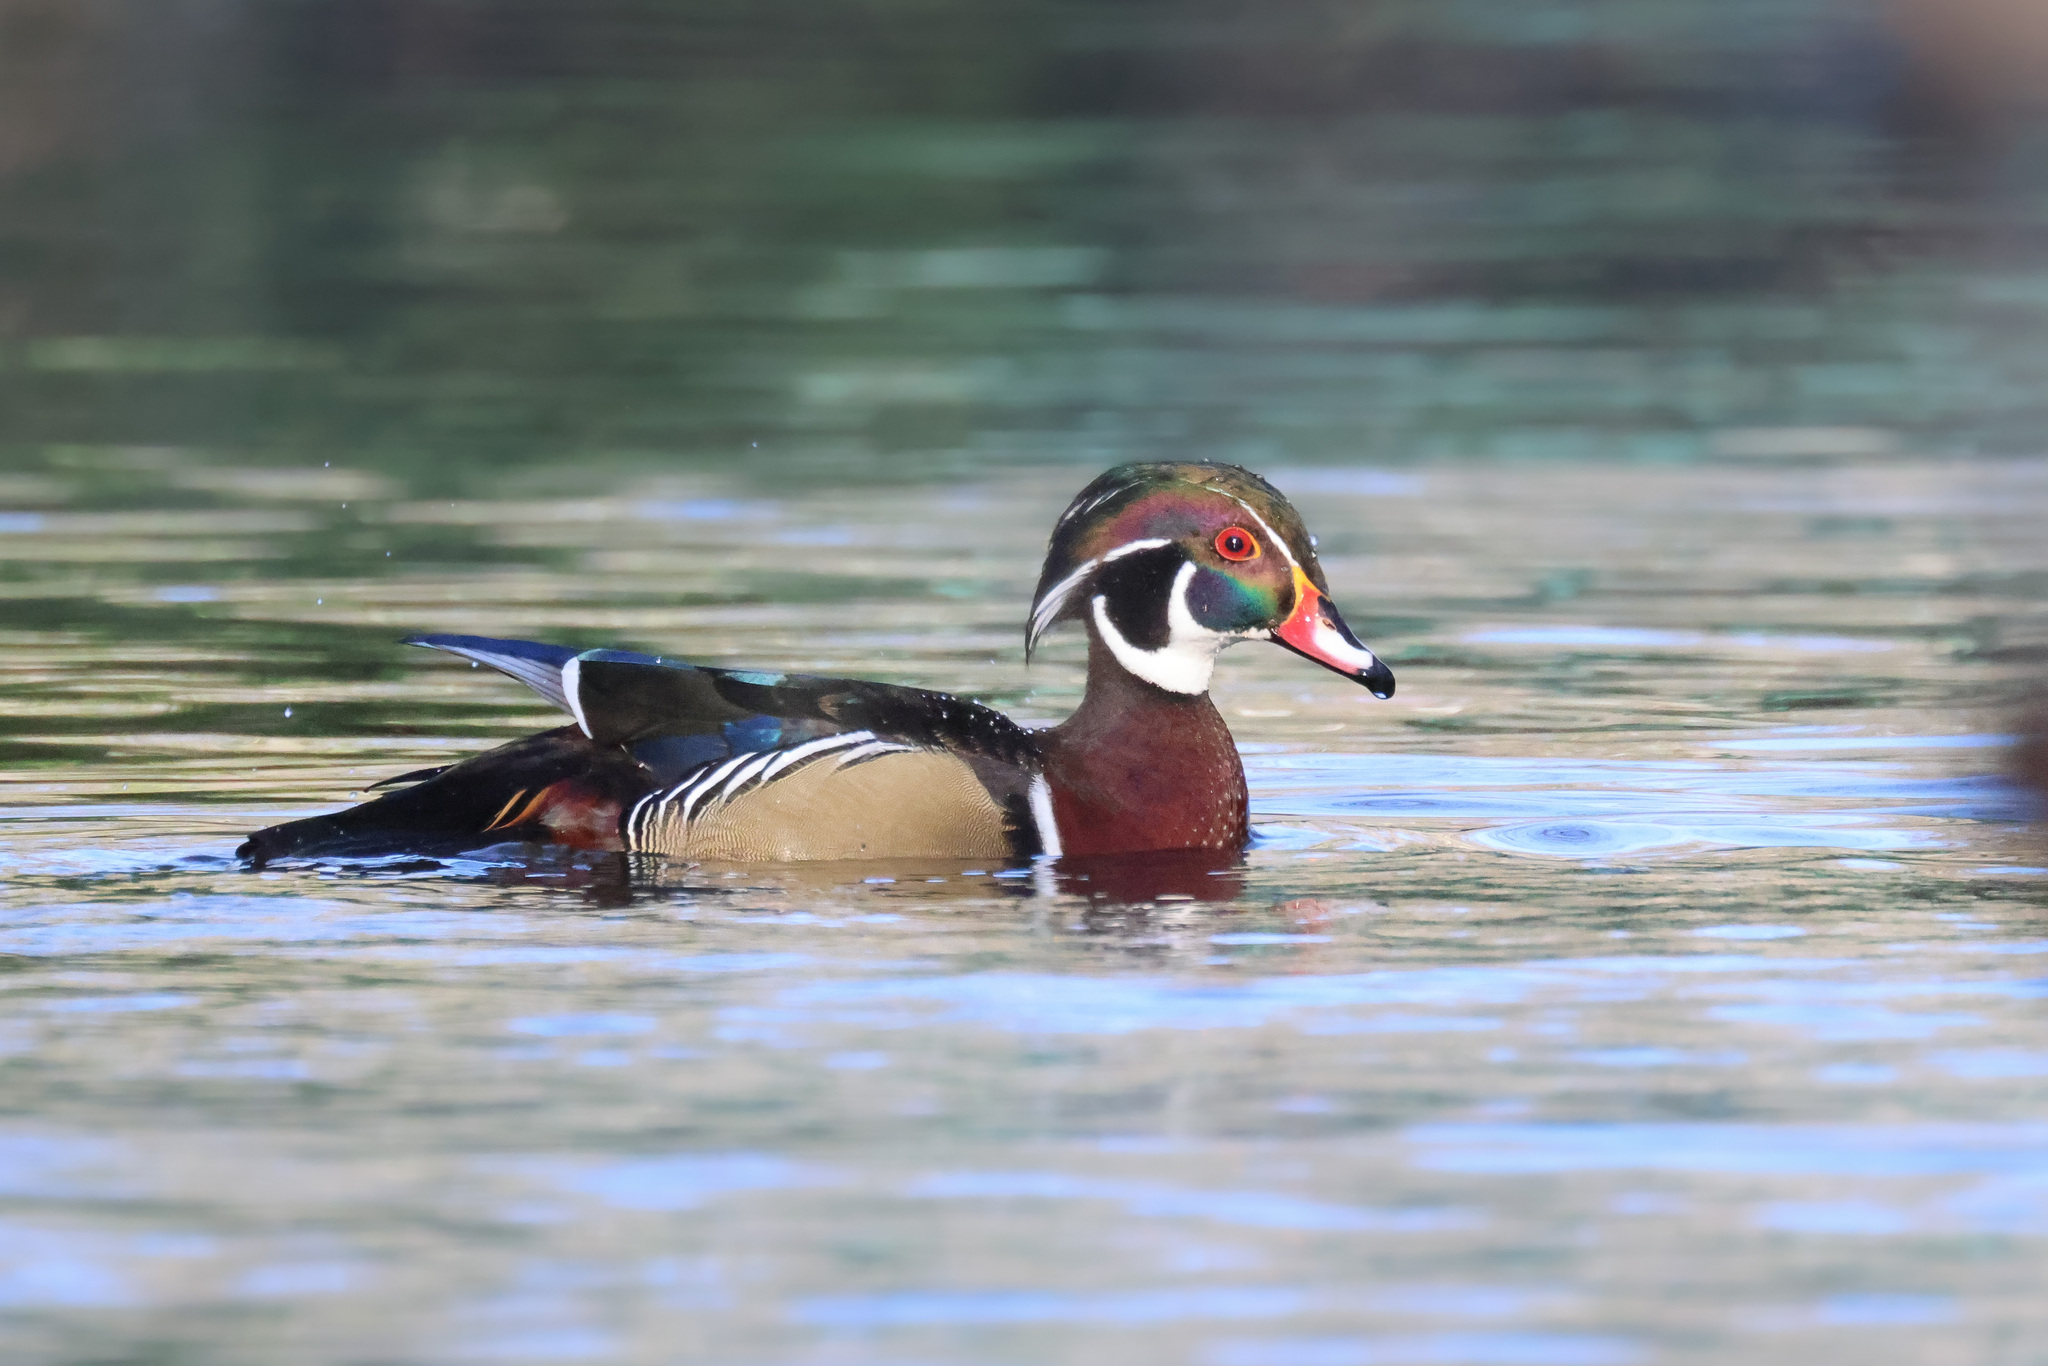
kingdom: Animalia
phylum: Chordata
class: Aves
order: Anseriformes
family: Anatidae
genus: Aix
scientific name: Aix sponsa
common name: Wood duck
